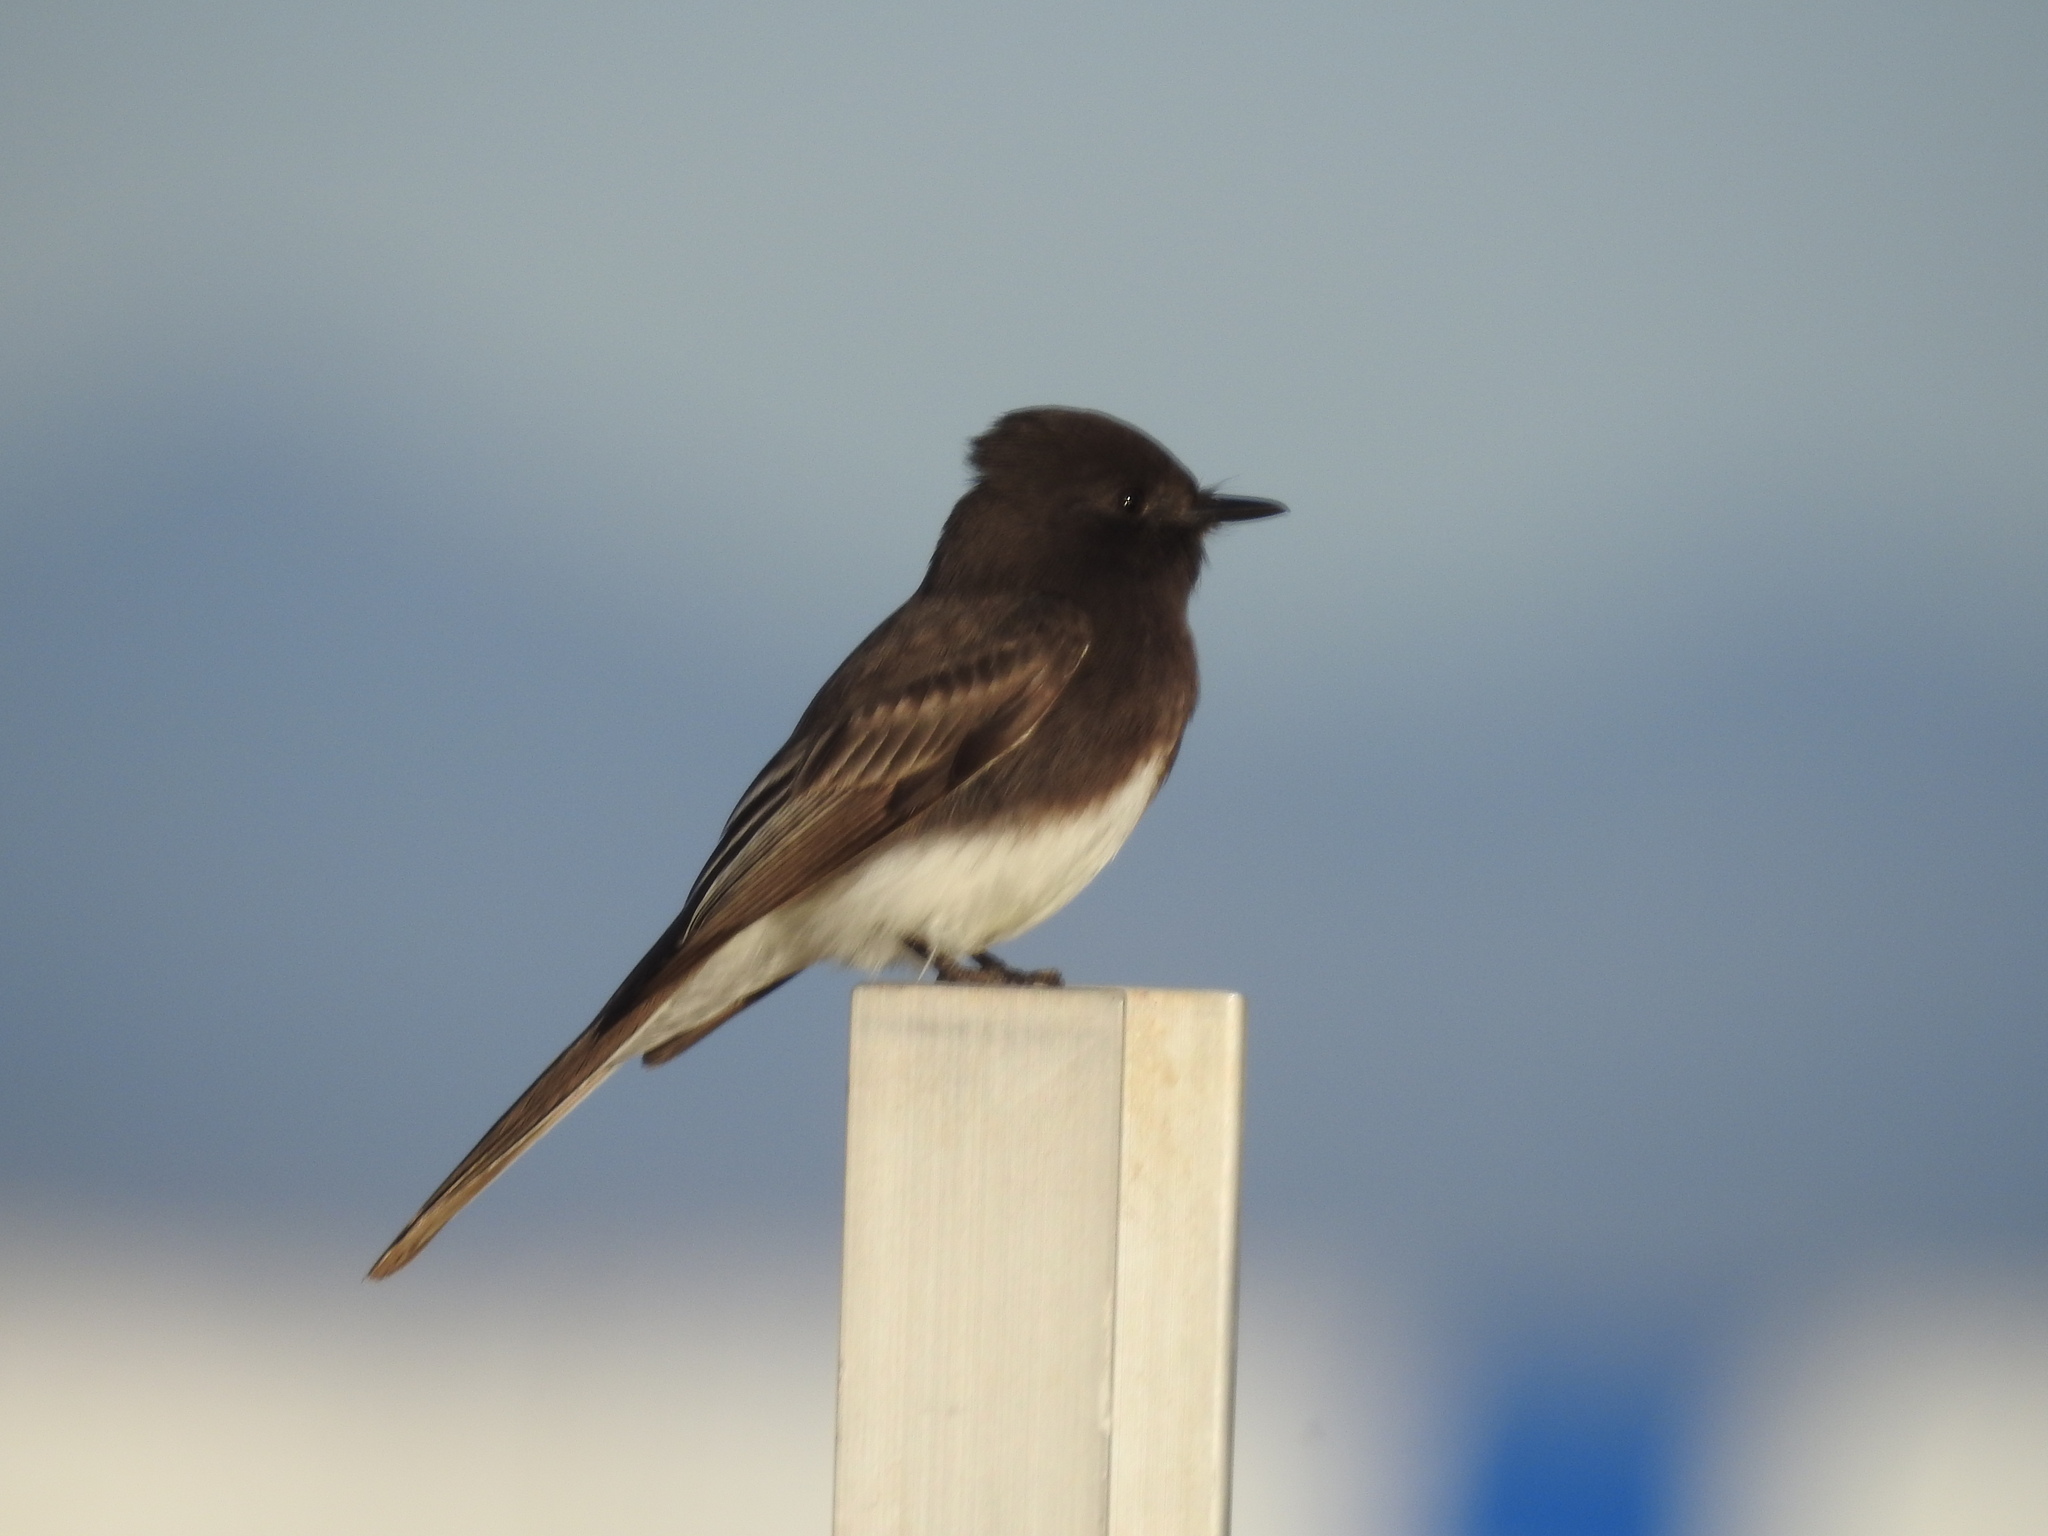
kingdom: Animalia
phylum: Chordata
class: Aves
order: Passeriformes
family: Tyrannidae
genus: Sayornis
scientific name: Sayornis nigricans
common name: Black phoebe
